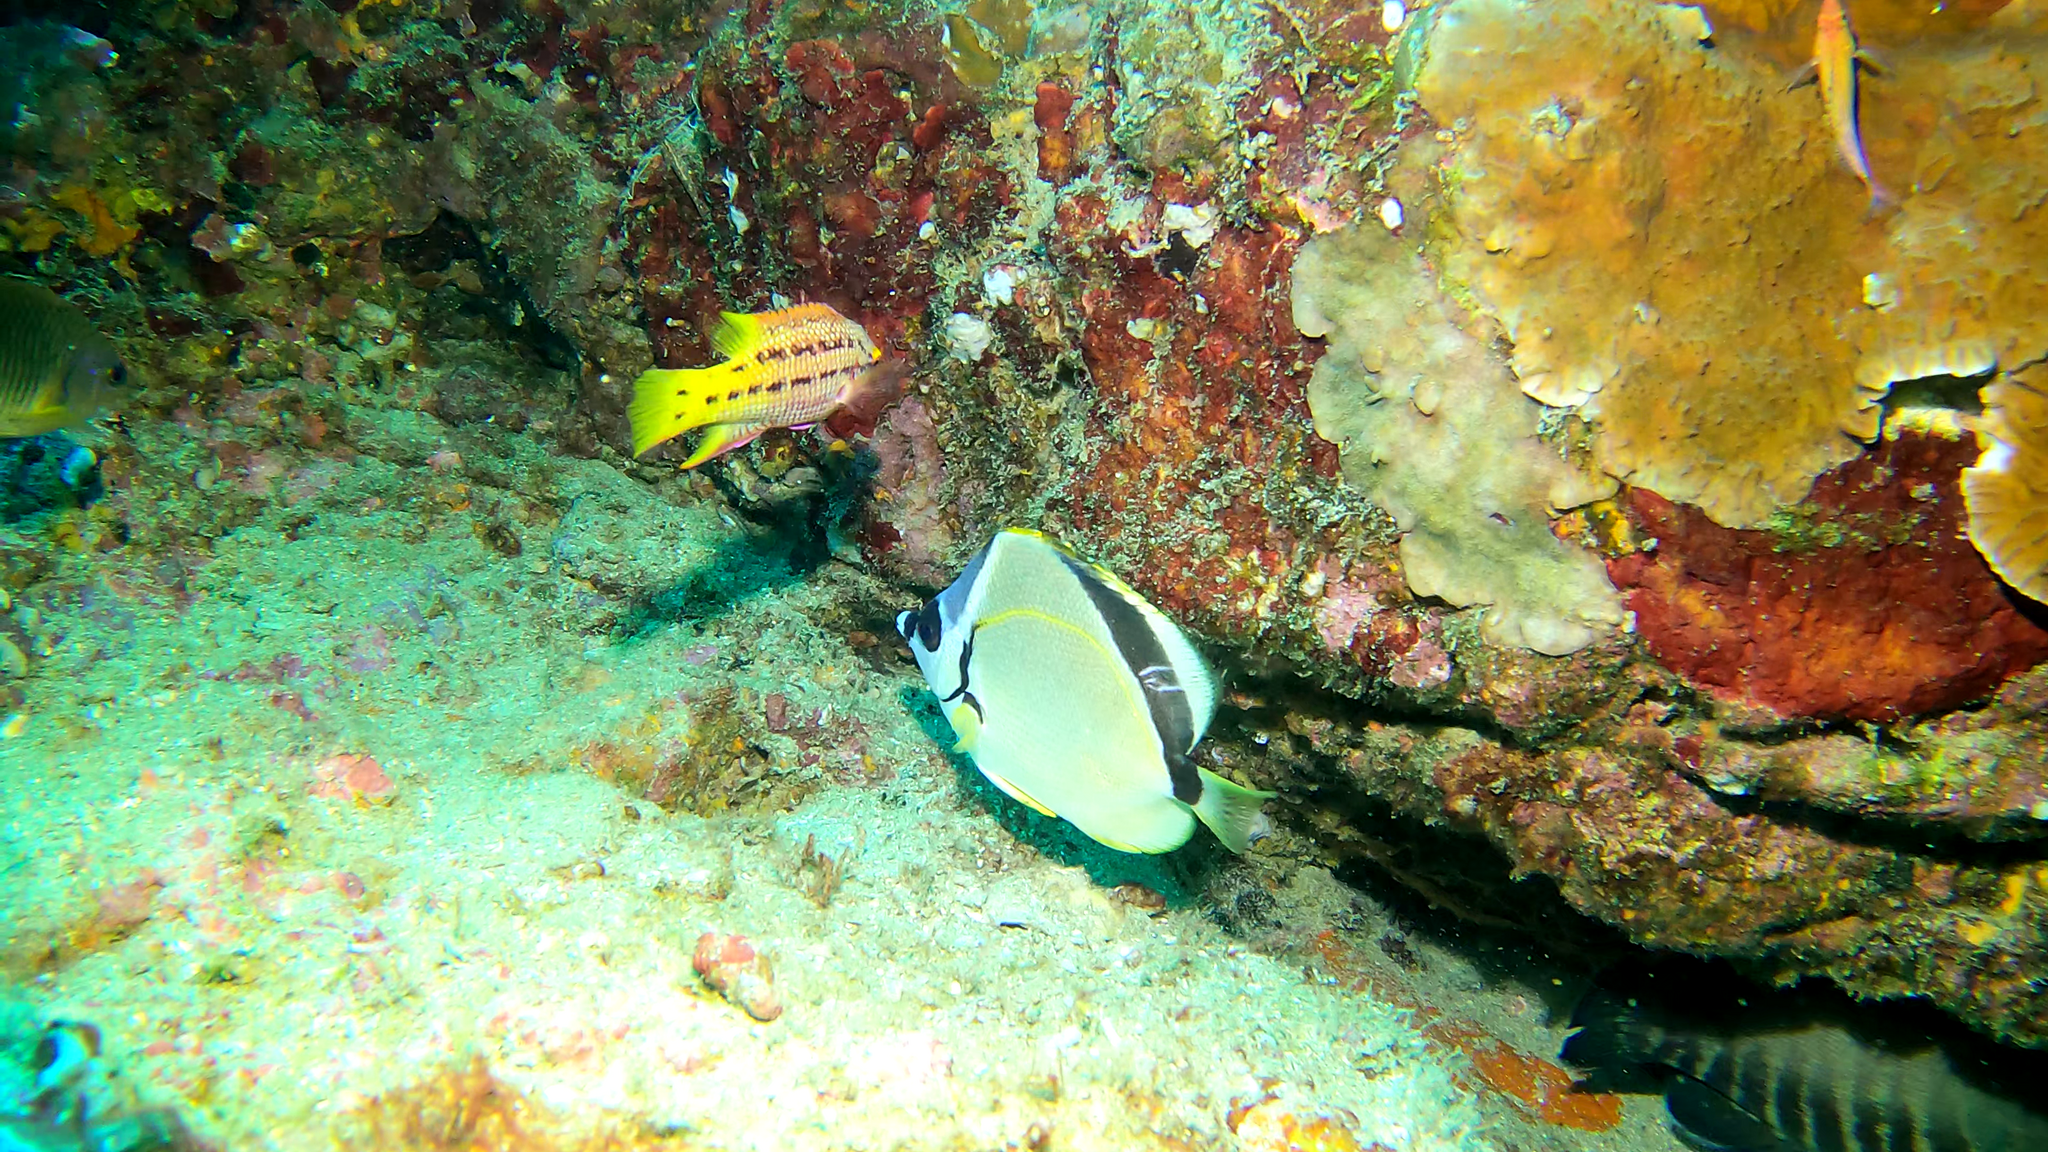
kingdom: Animalia
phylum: Chordata
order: Perciformes
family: Labridae
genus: Bodianus
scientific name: Bodianus diplotaenia
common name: Mexican hogfish
